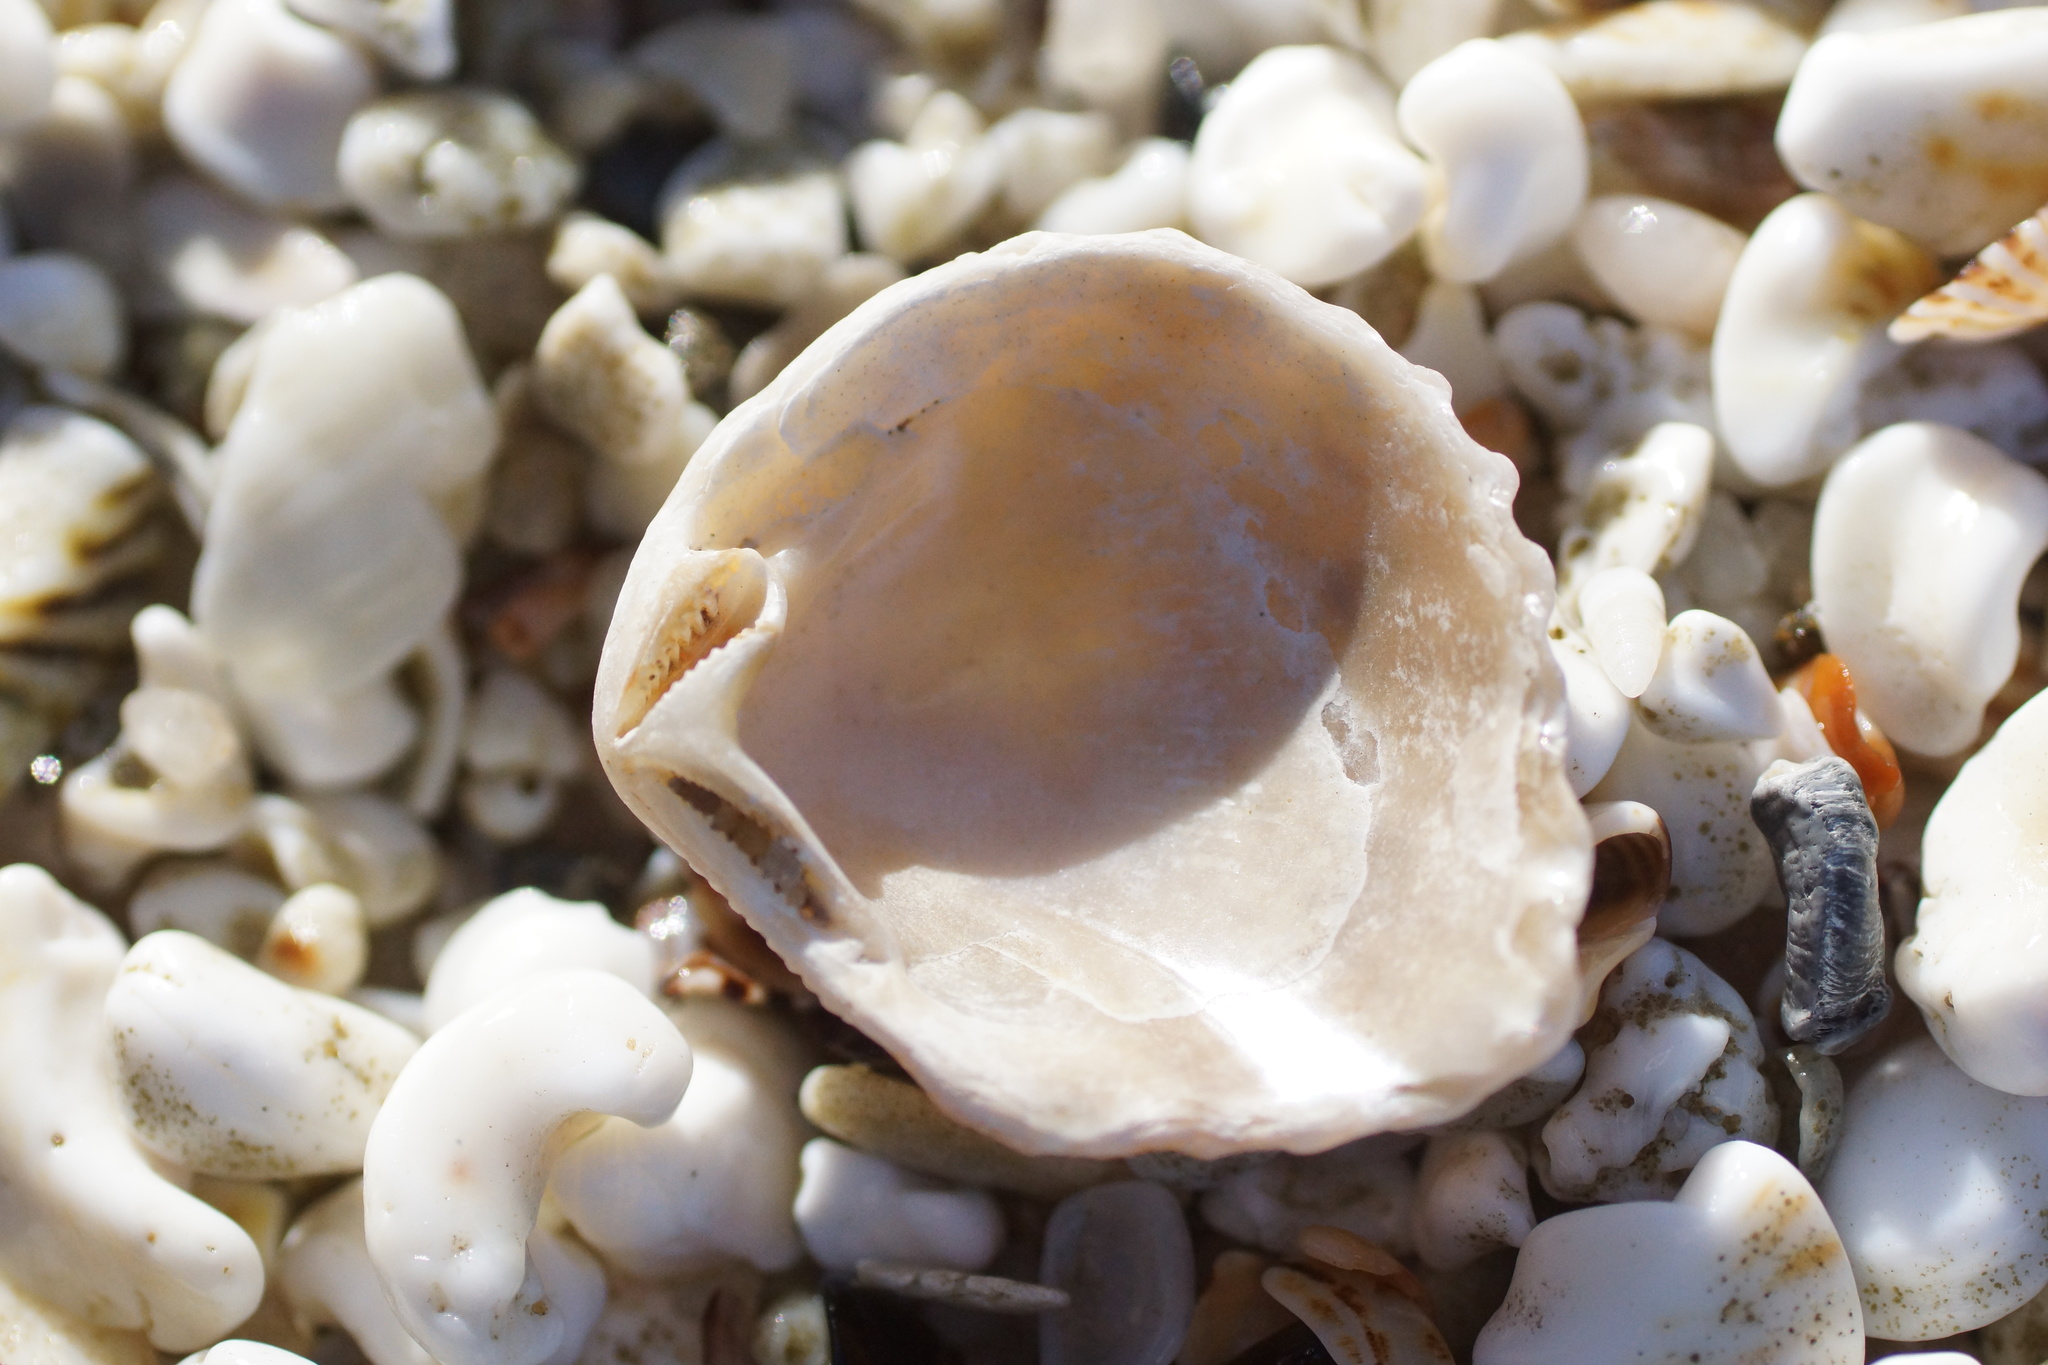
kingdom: Animalia
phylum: Mollusca
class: Bivalvia
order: Trigoniida
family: Trigoniidae
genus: Neotrigonia
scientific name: Neotrigonia margaritacea
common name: Brooch clam
